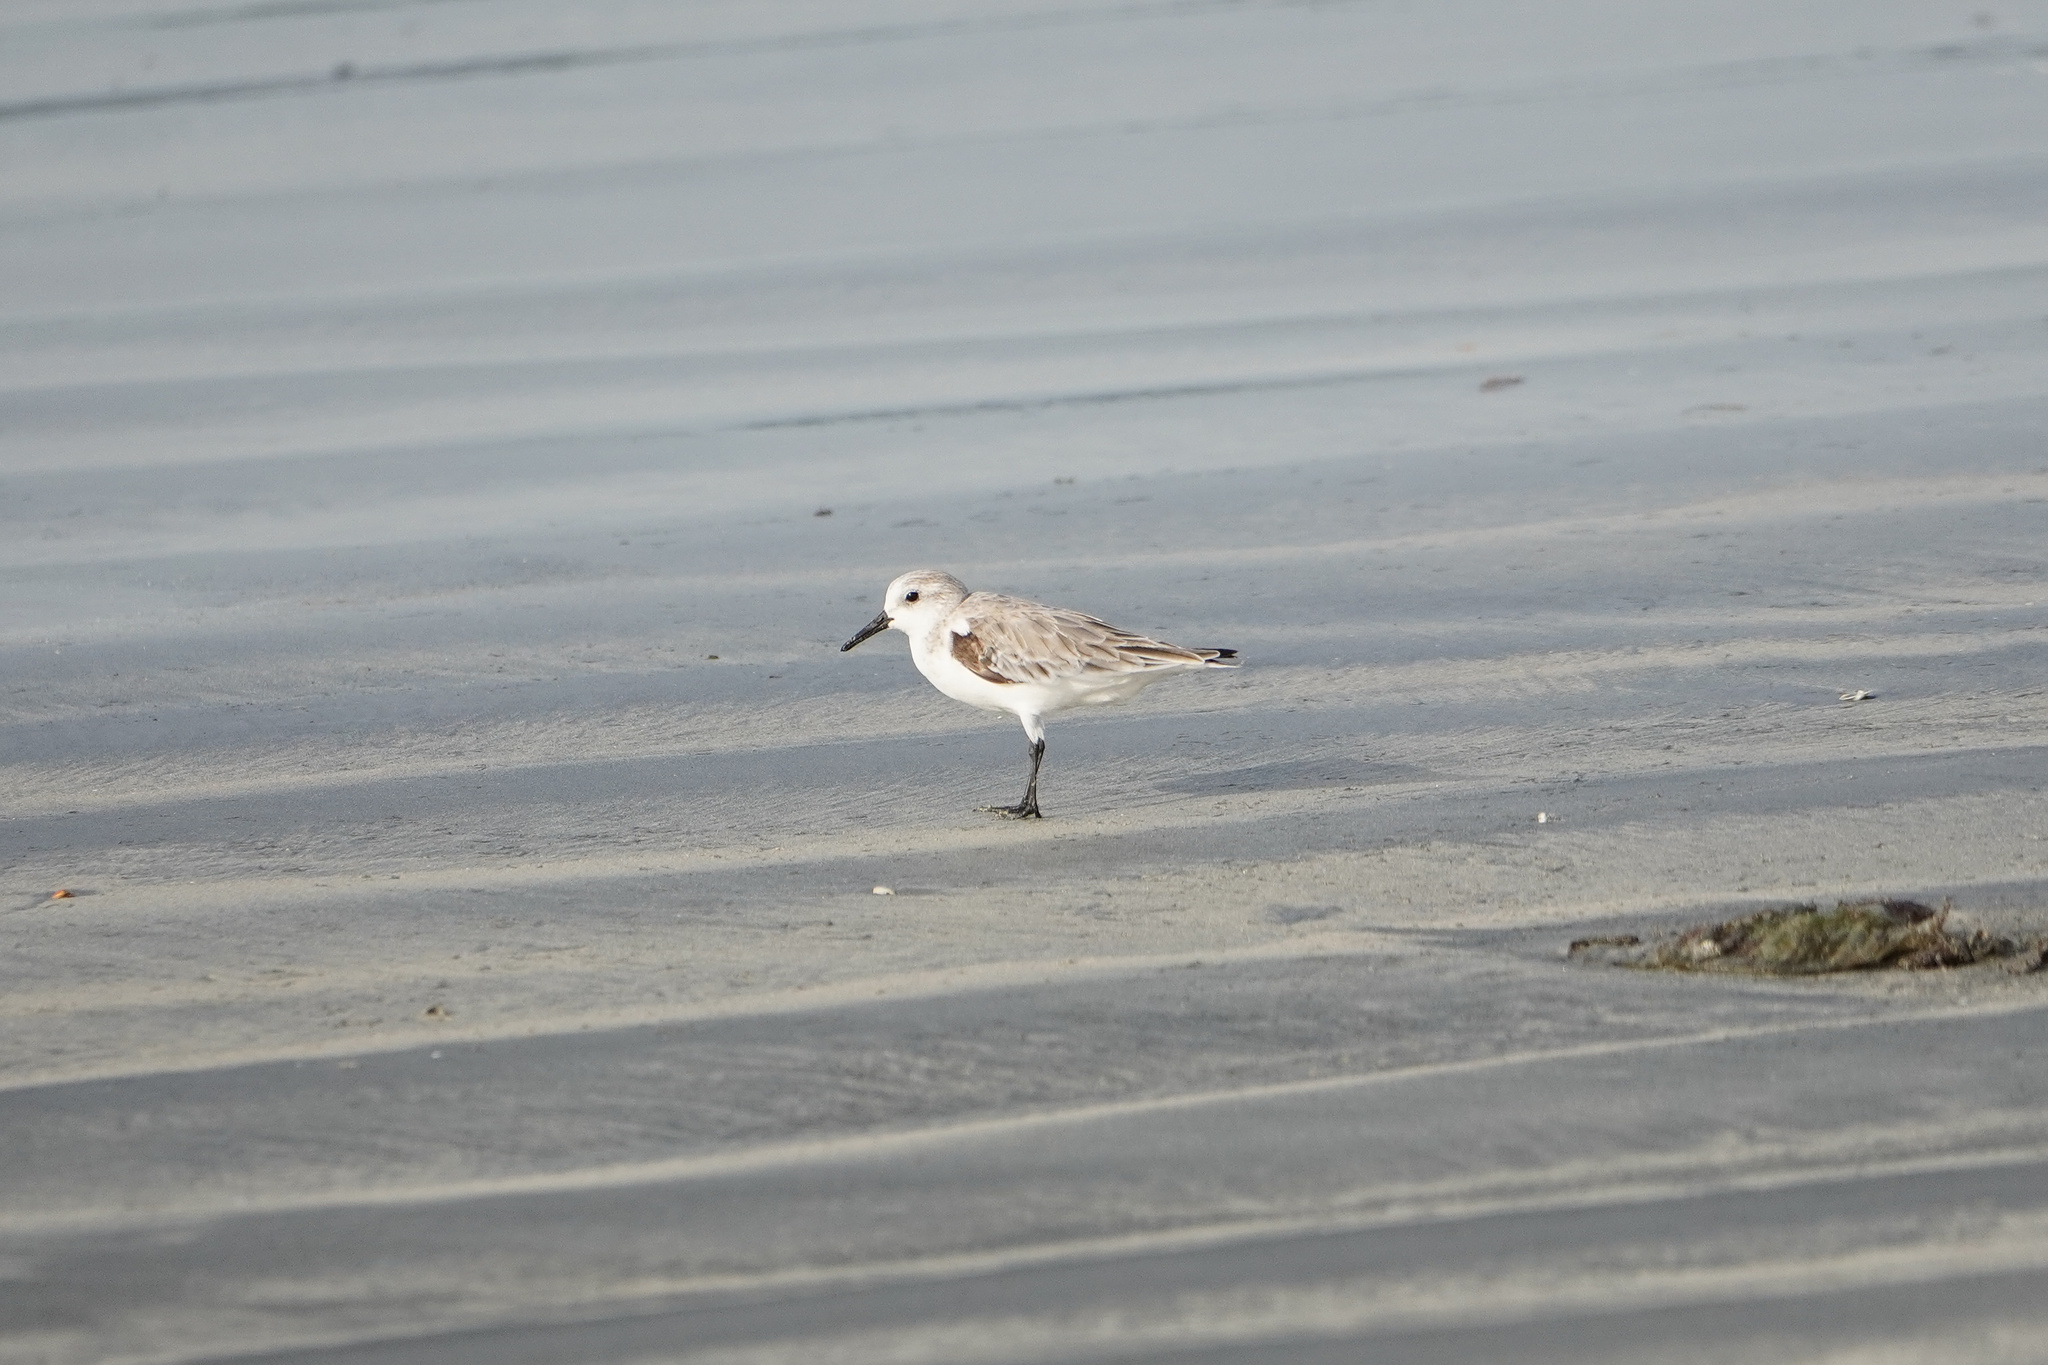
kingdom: Animalia
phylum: Chordata
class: Aves
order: Charadriiformes
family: Scolopacidae
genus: Calidris
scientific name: Calidris alba
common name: Sanderling
